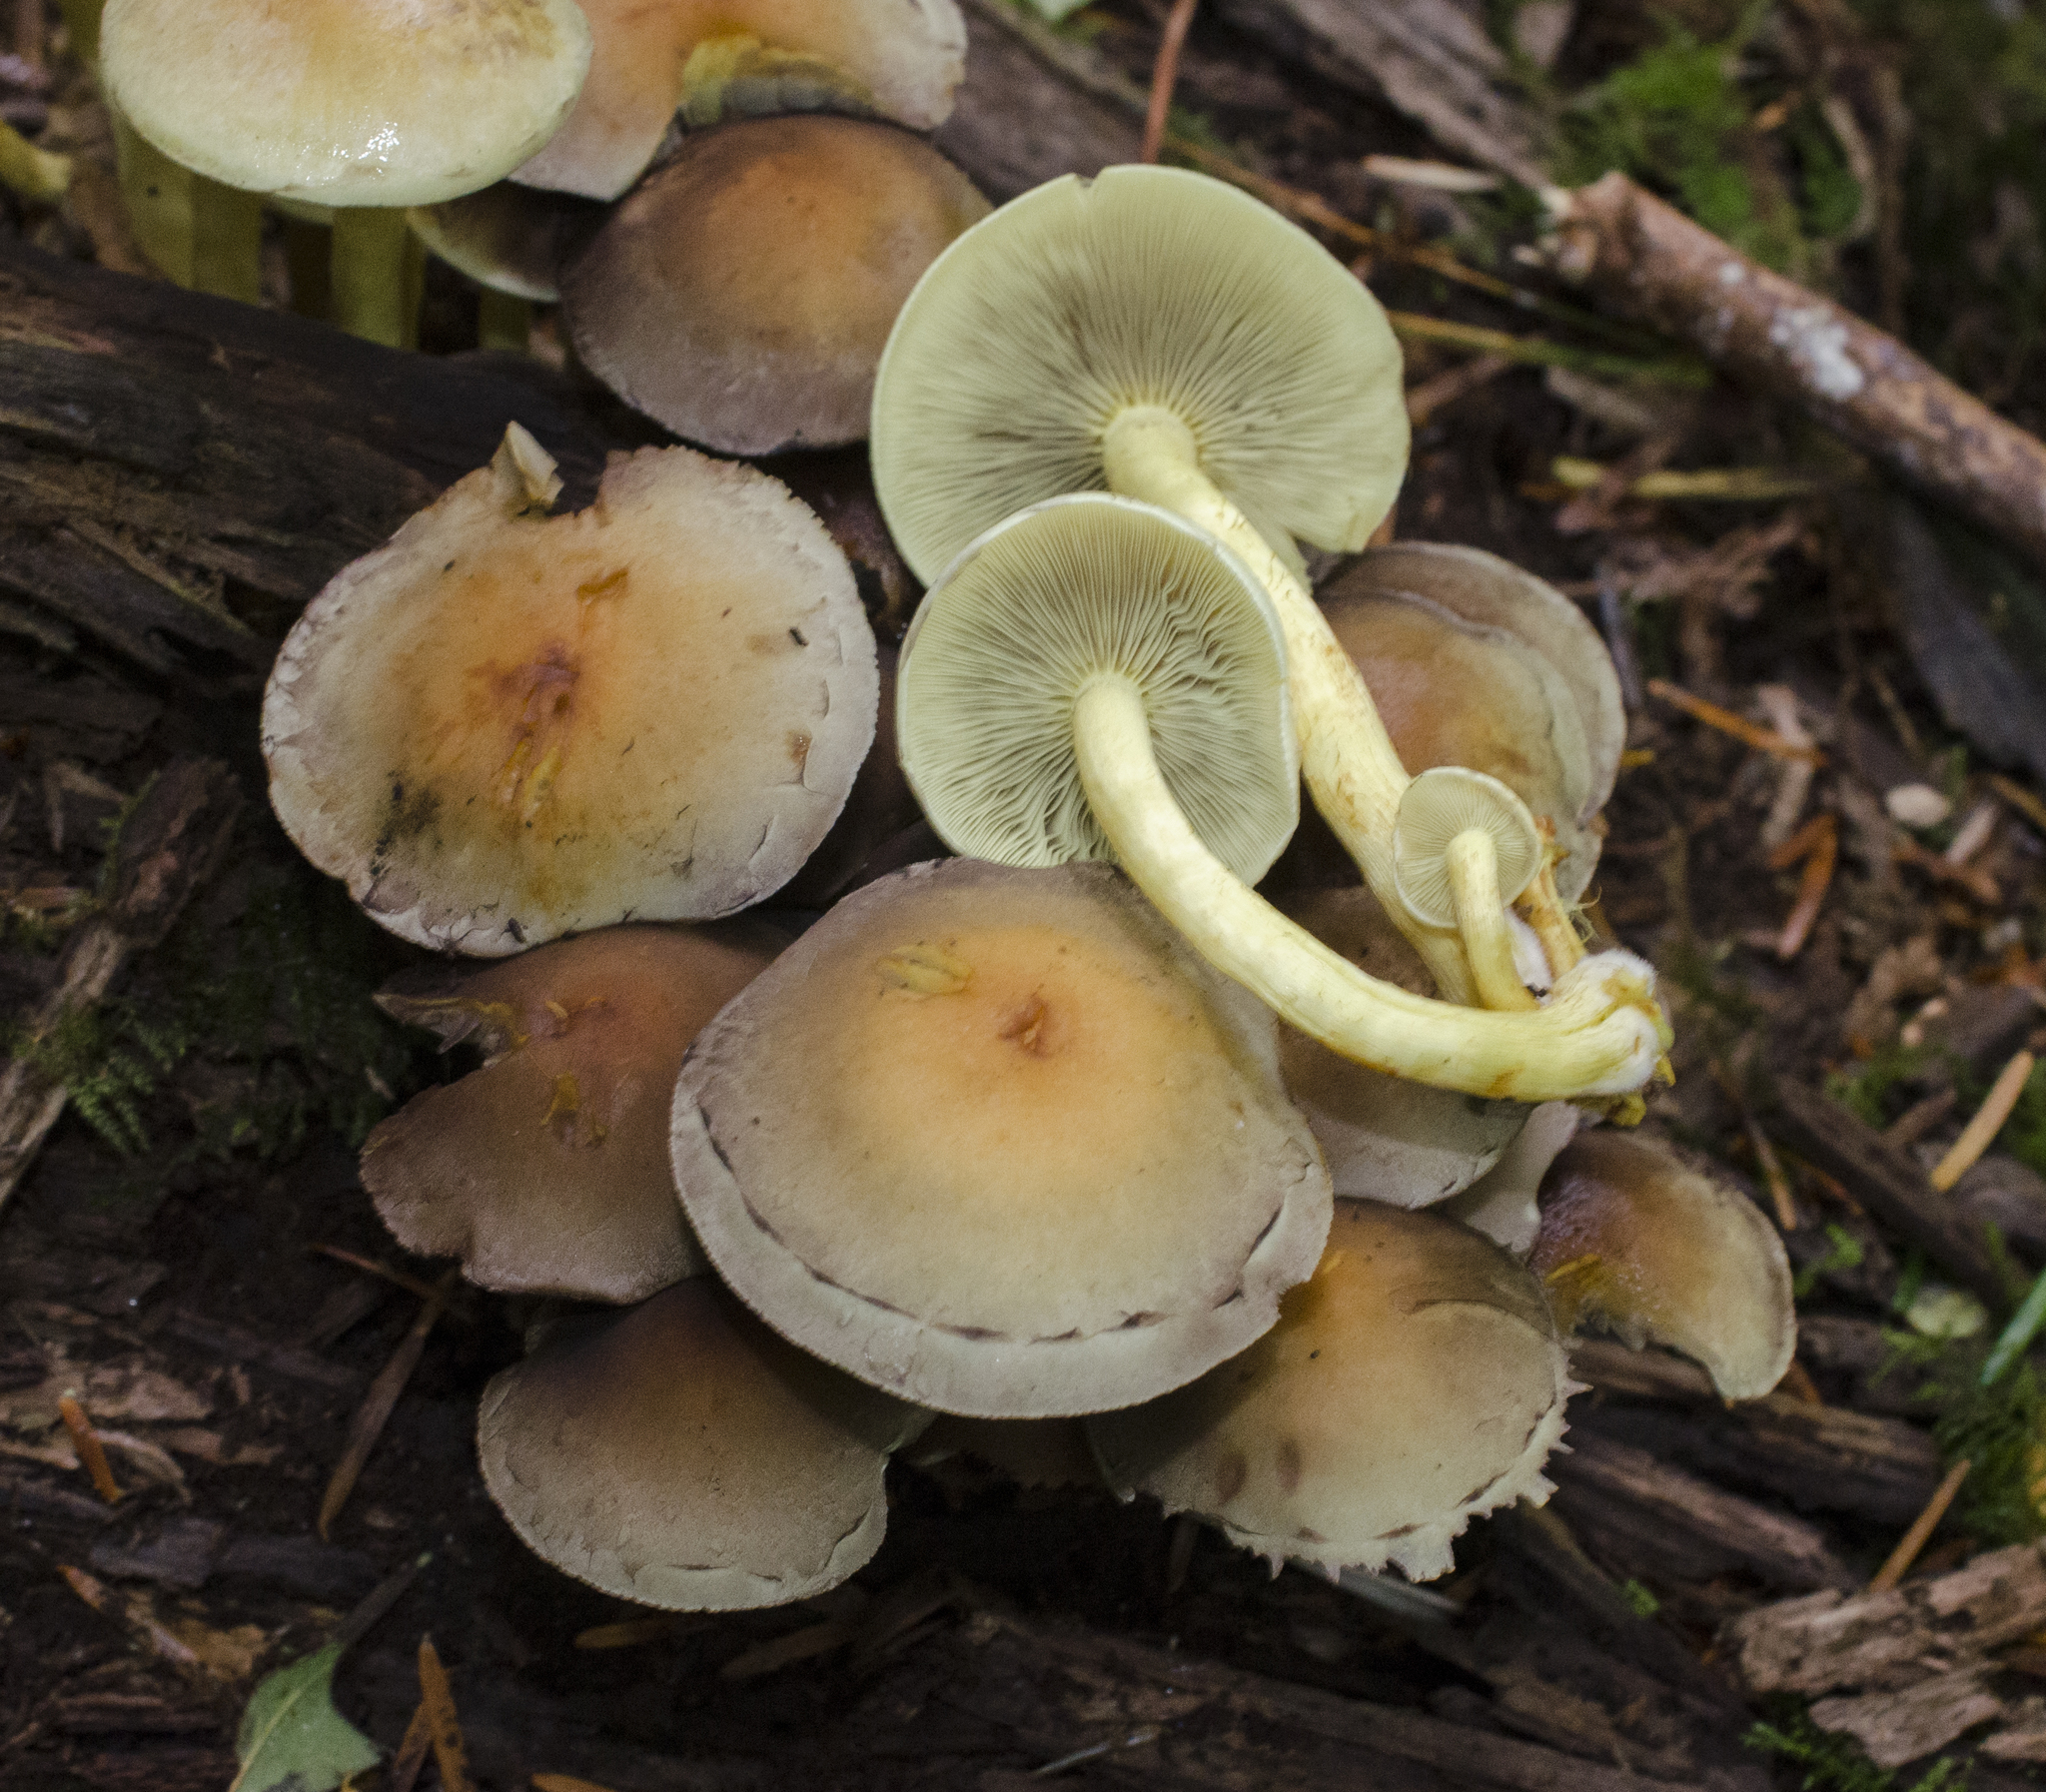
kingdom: Fungi
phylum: Basidiomycota
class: Agaricomycetes
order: Agaricales
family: Strophariaceae
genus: Hypholoma
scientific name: Hypholoma fasciculare
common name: Sulphur tuft
